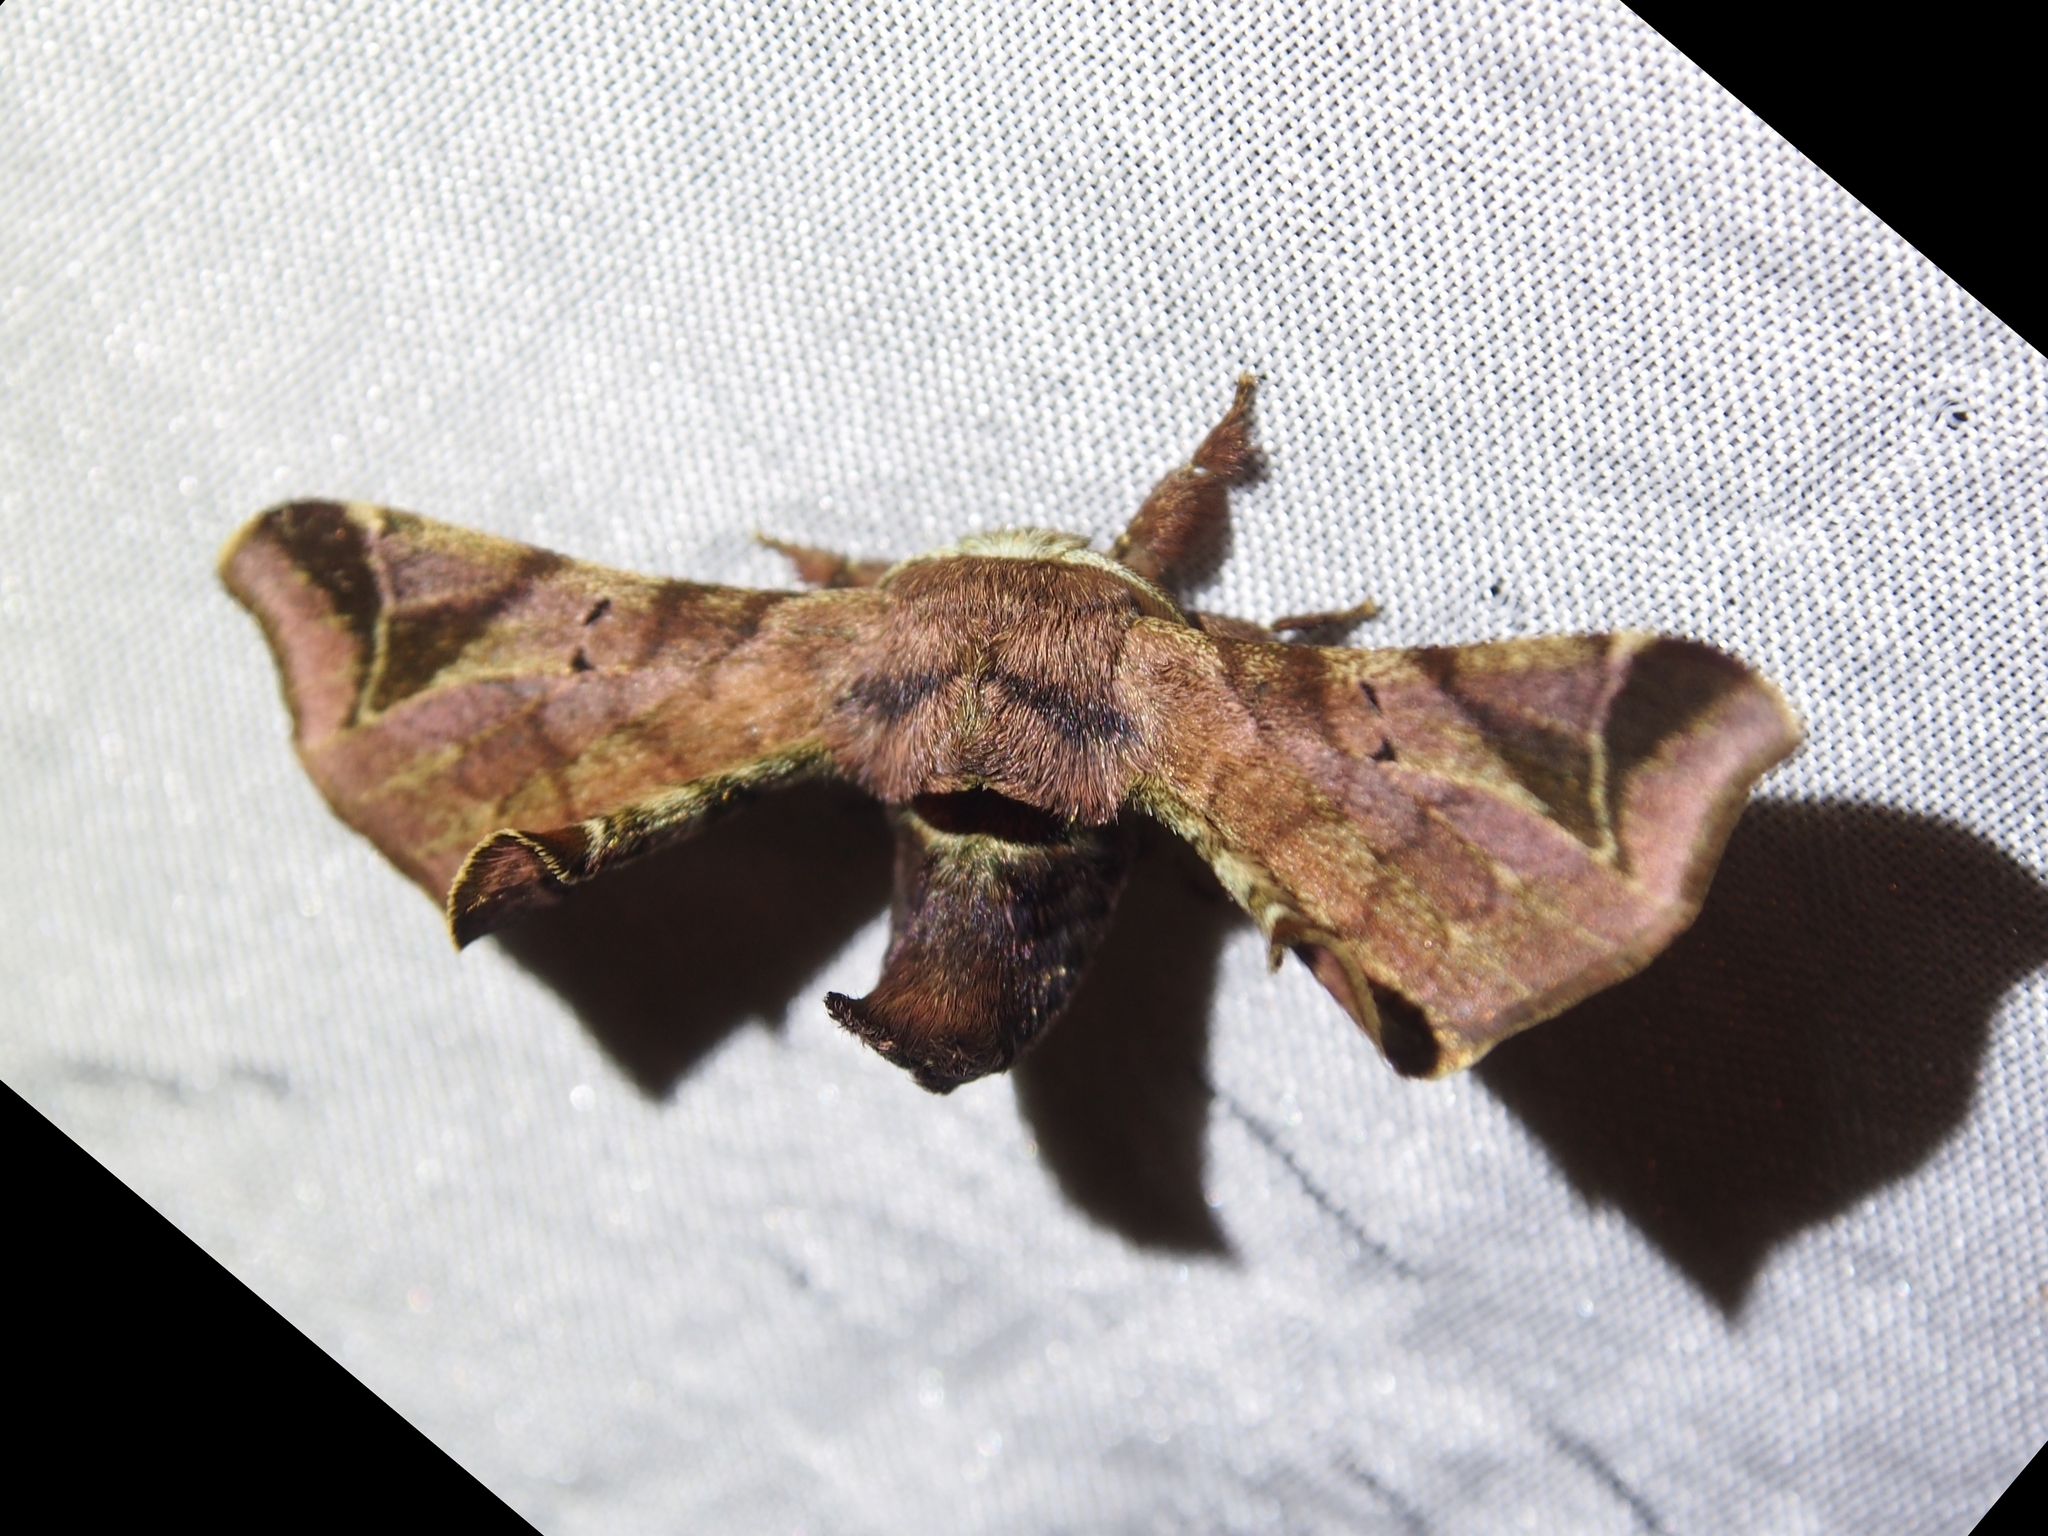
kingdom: Animalia
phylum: Arthropoda
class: Insecta
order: Lepidoptera
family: Bombycidae
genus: Quentalia
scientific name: Quentalia numalia
